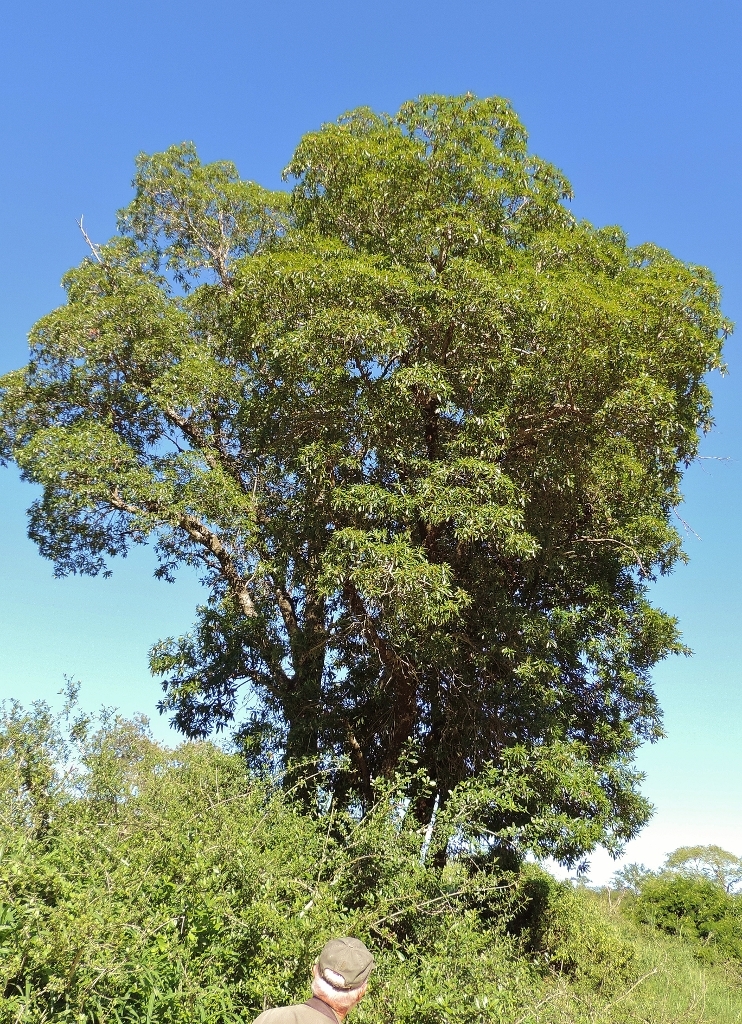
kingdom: Plantae
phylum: Tracheophyta
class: Magnoliopsida
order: Gentianales
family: Rubiaceae
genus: Breonadia
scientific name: Breonadia salicina
